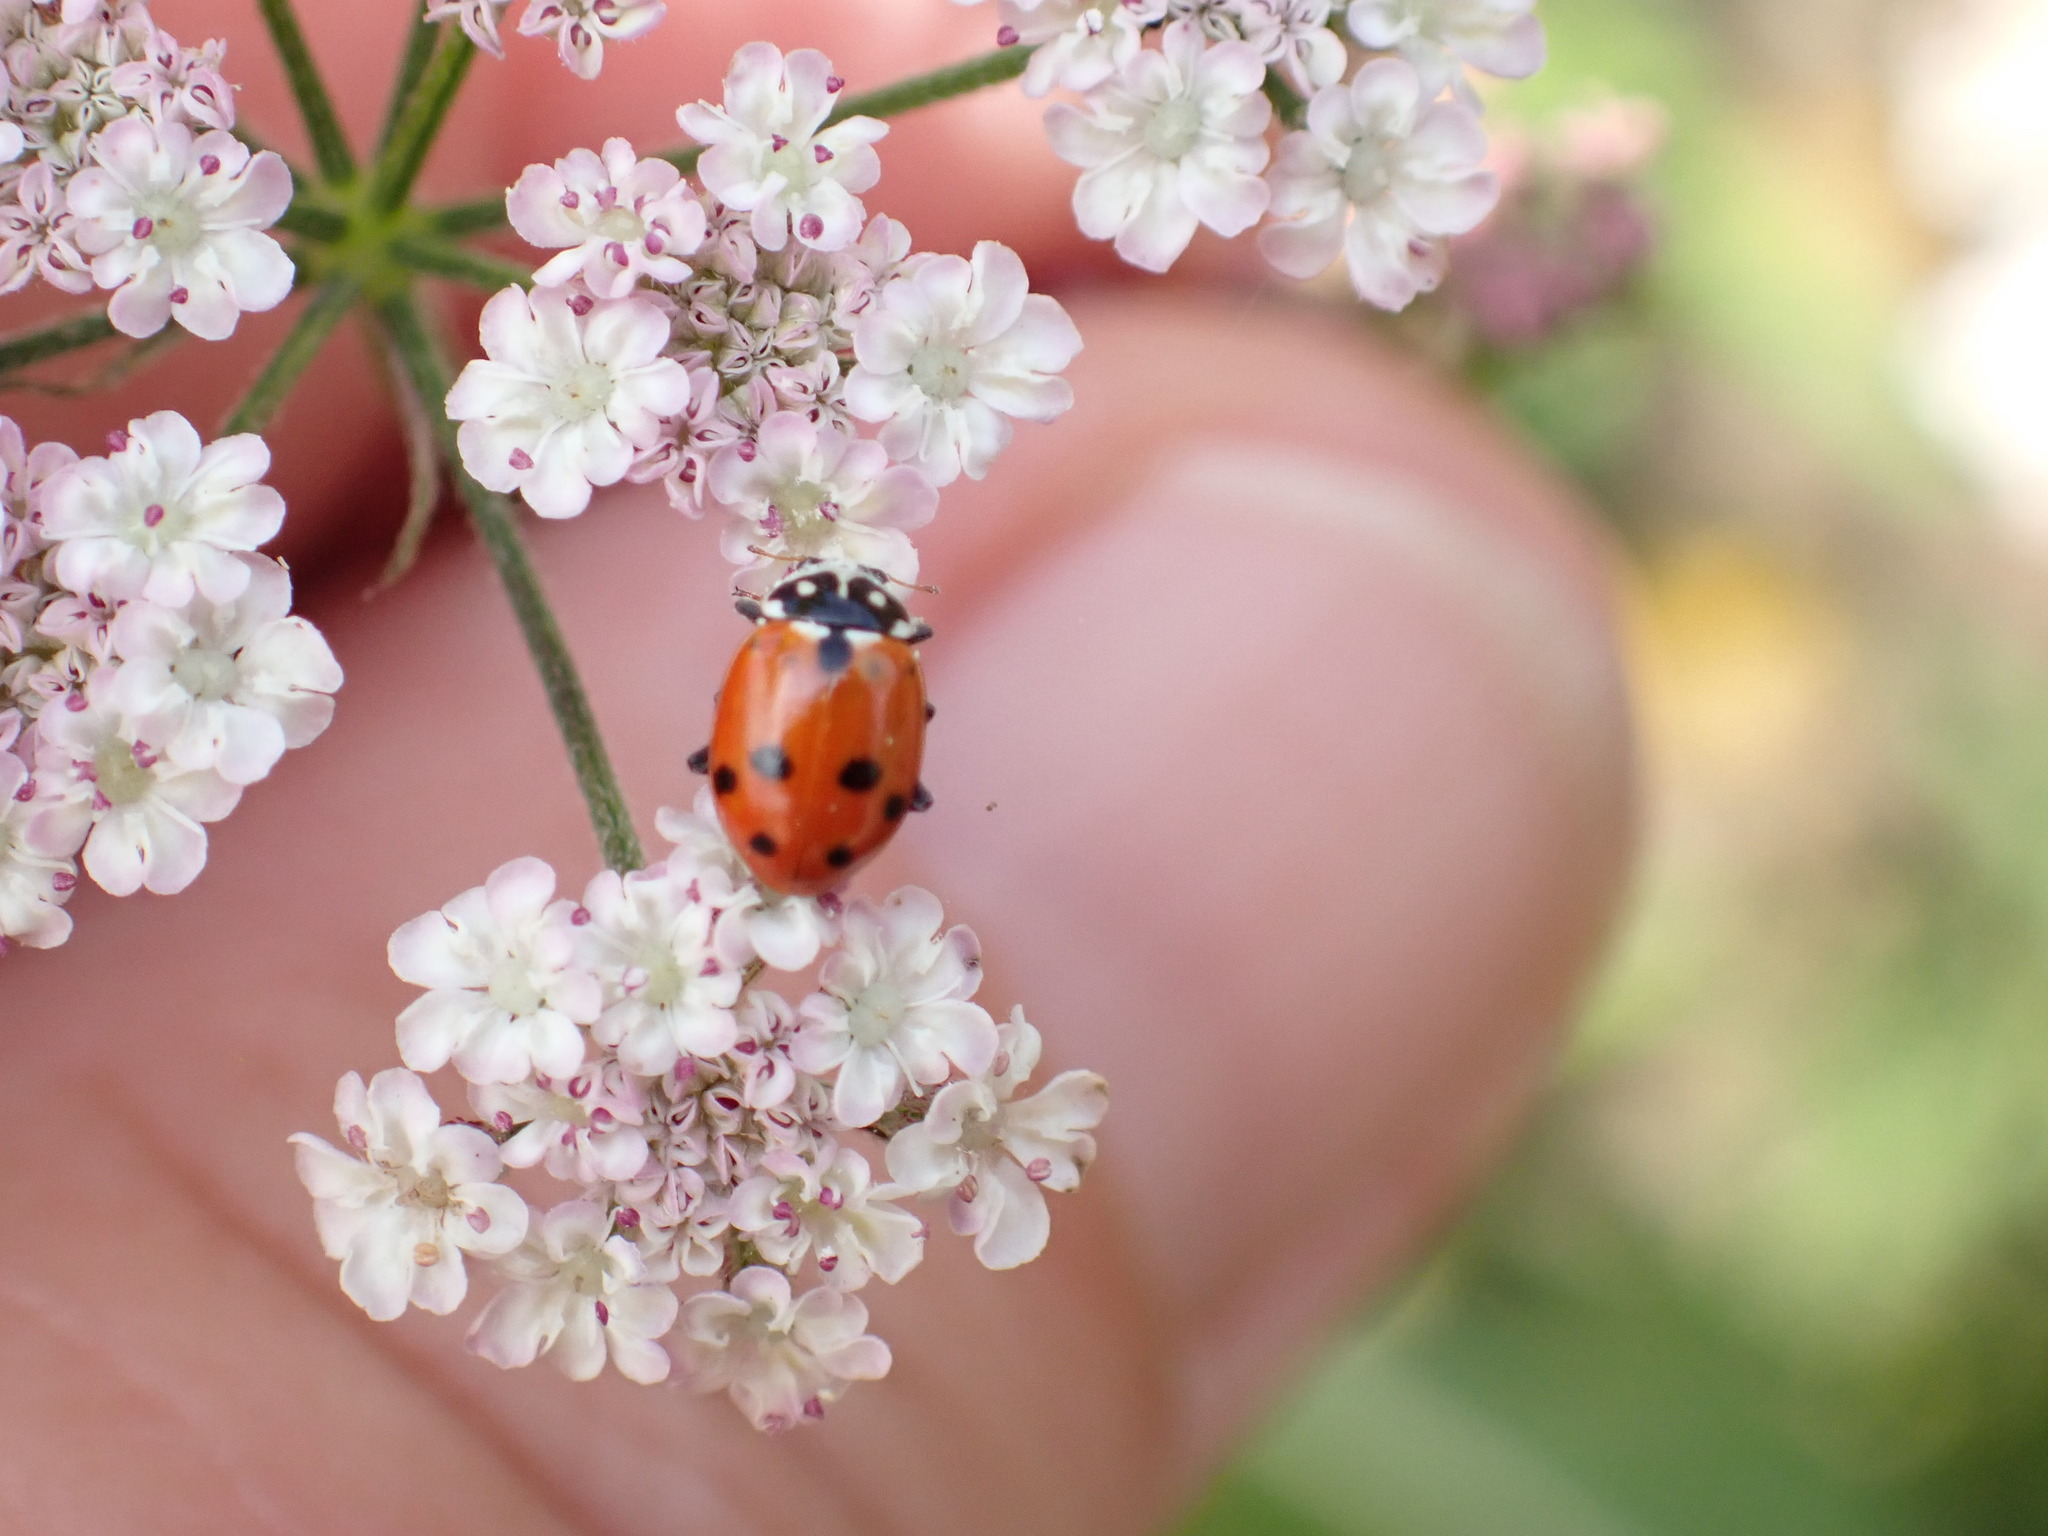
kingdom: Animalia
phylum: Arthropoda
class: Insecta
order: Coleoptera
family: Coccinellidae
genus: Hippodamia
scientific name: Hippodamia variegata
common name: Ladybird beetle
